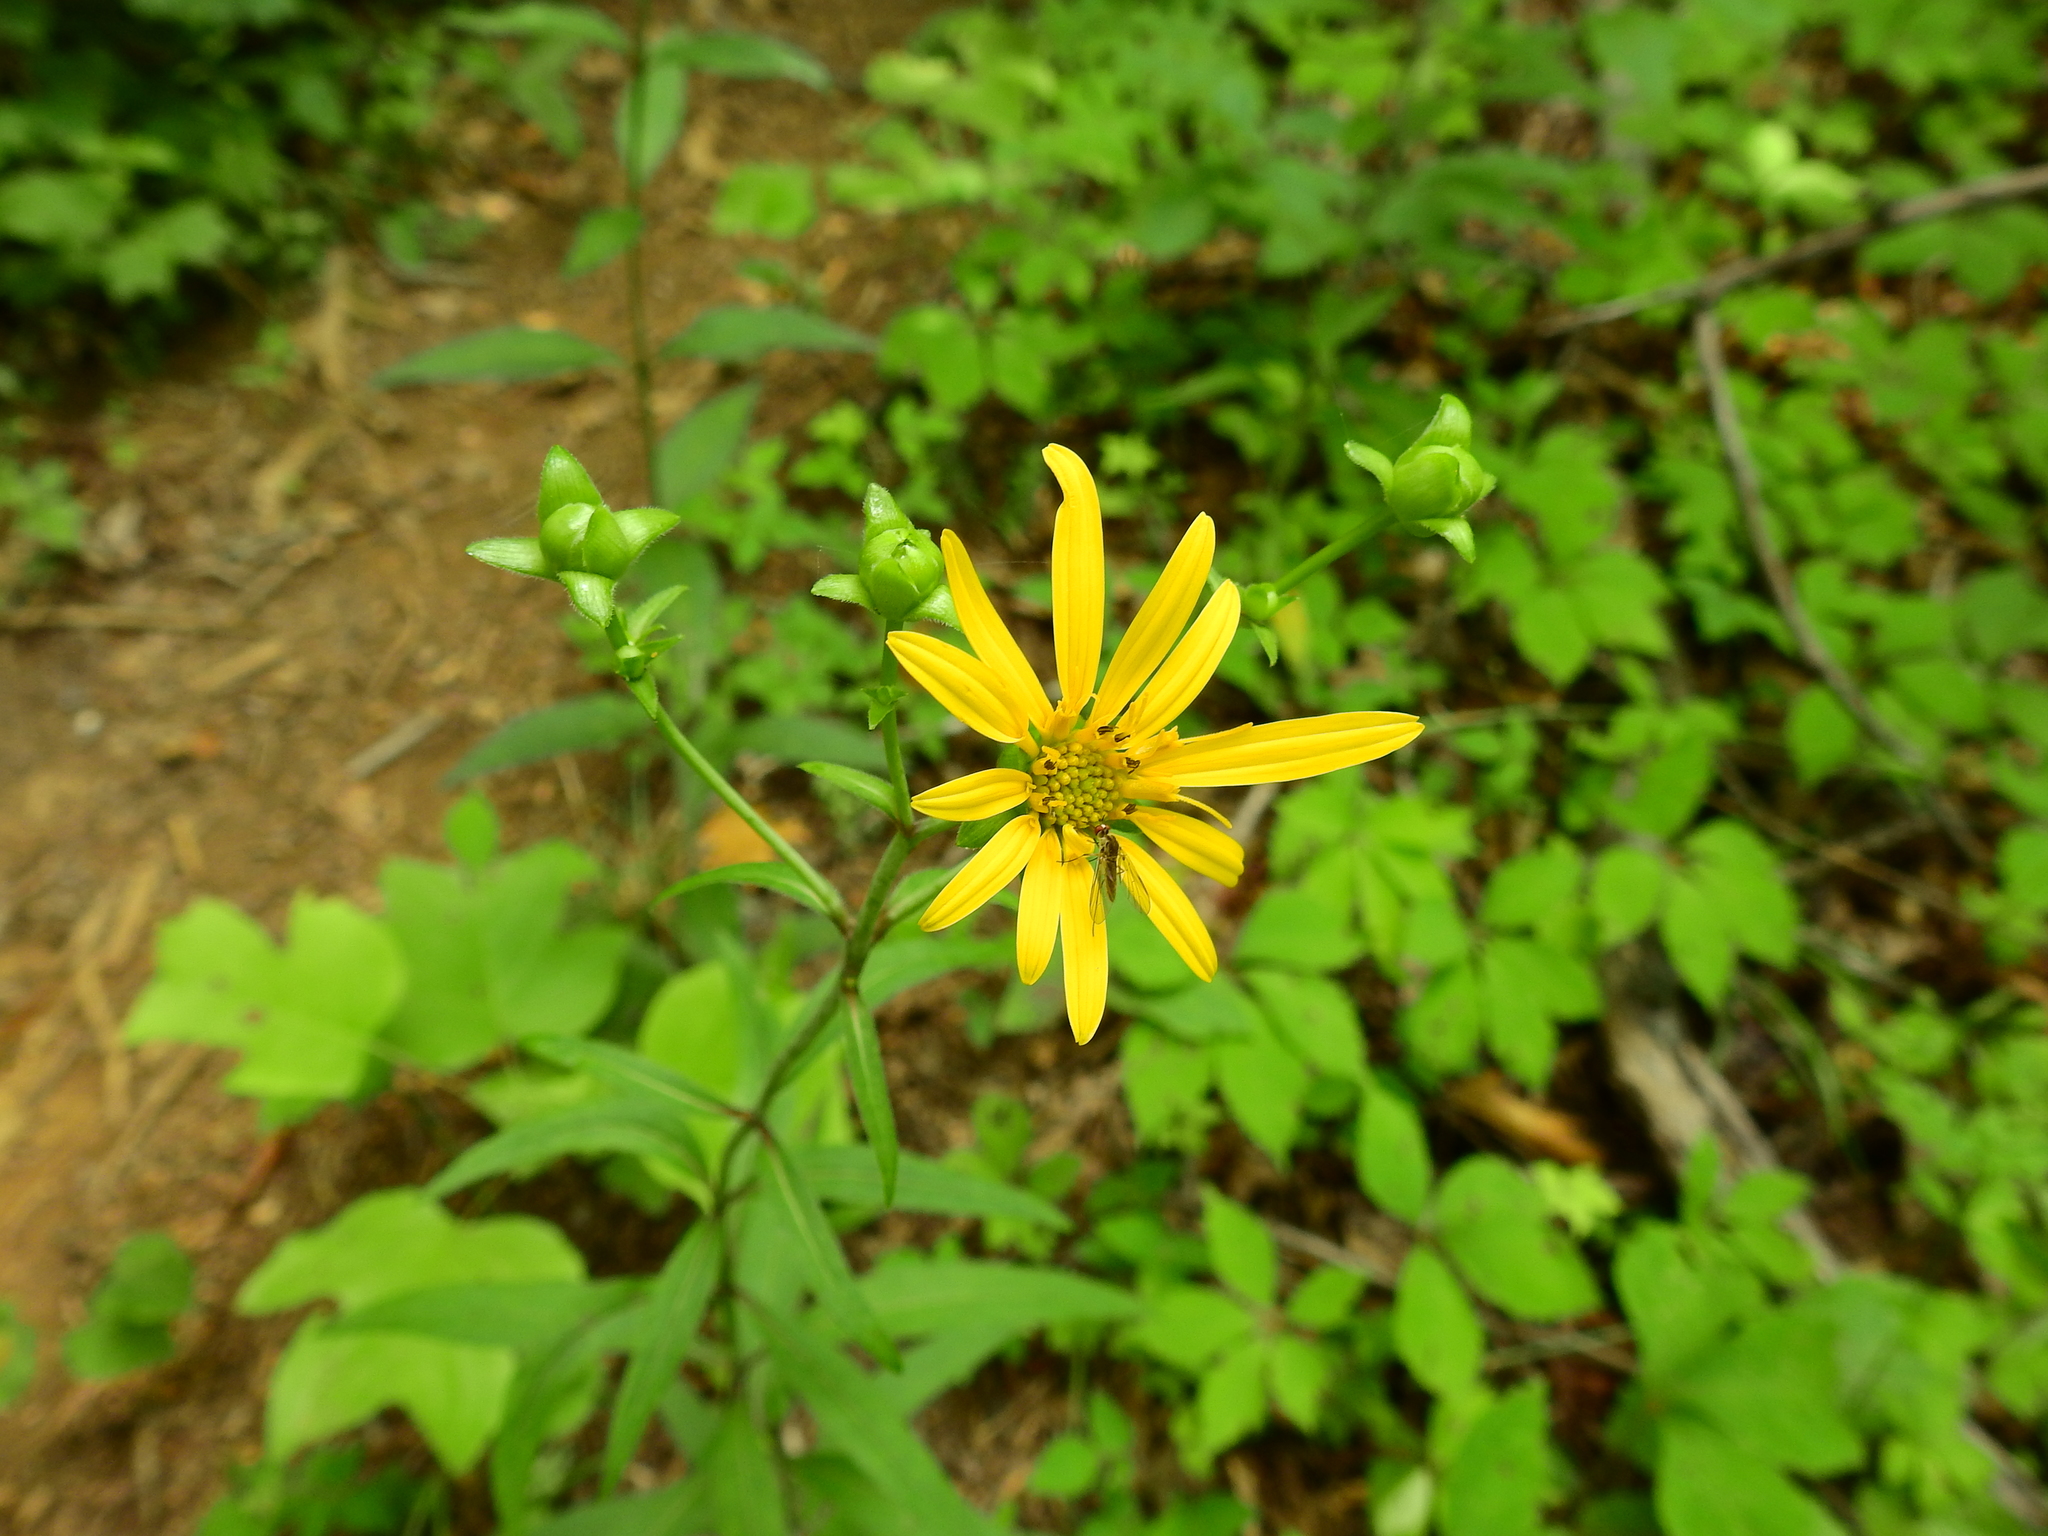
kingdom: Plantae
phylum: Tracheophyta
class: Magnoliopsida
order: Asterales
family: Asteraceae
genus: Silphium
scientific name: Silphium asteriscus
